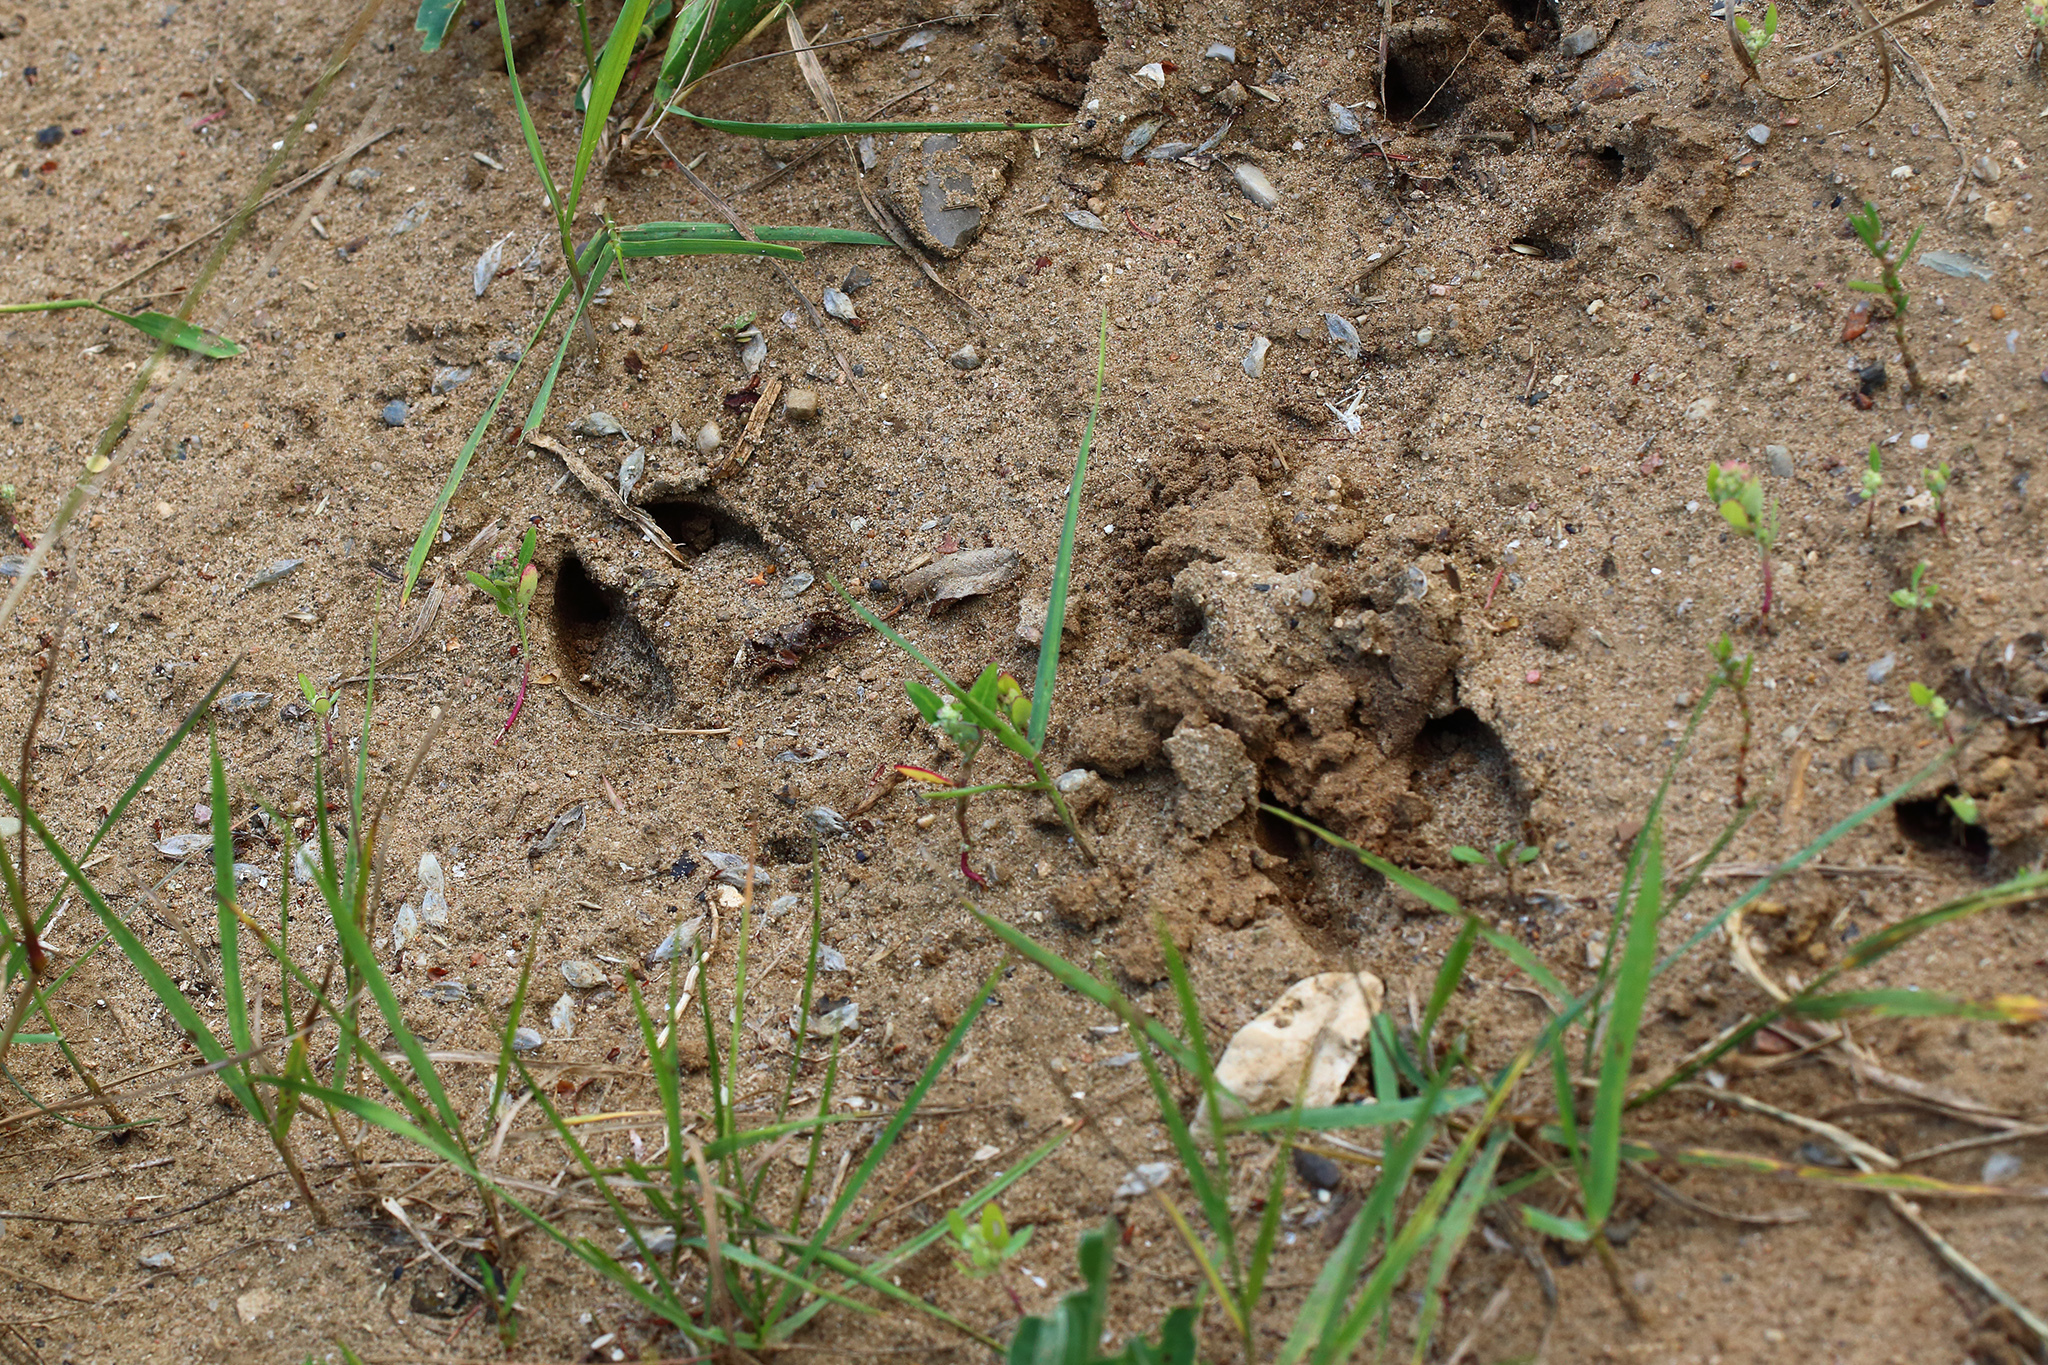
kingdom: Animalia
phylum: Chordata
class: Mammalia
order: Artiodactyla
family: Cervidae
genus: Capreolus
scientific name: Capreolus capreolus
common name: Western roe deer
